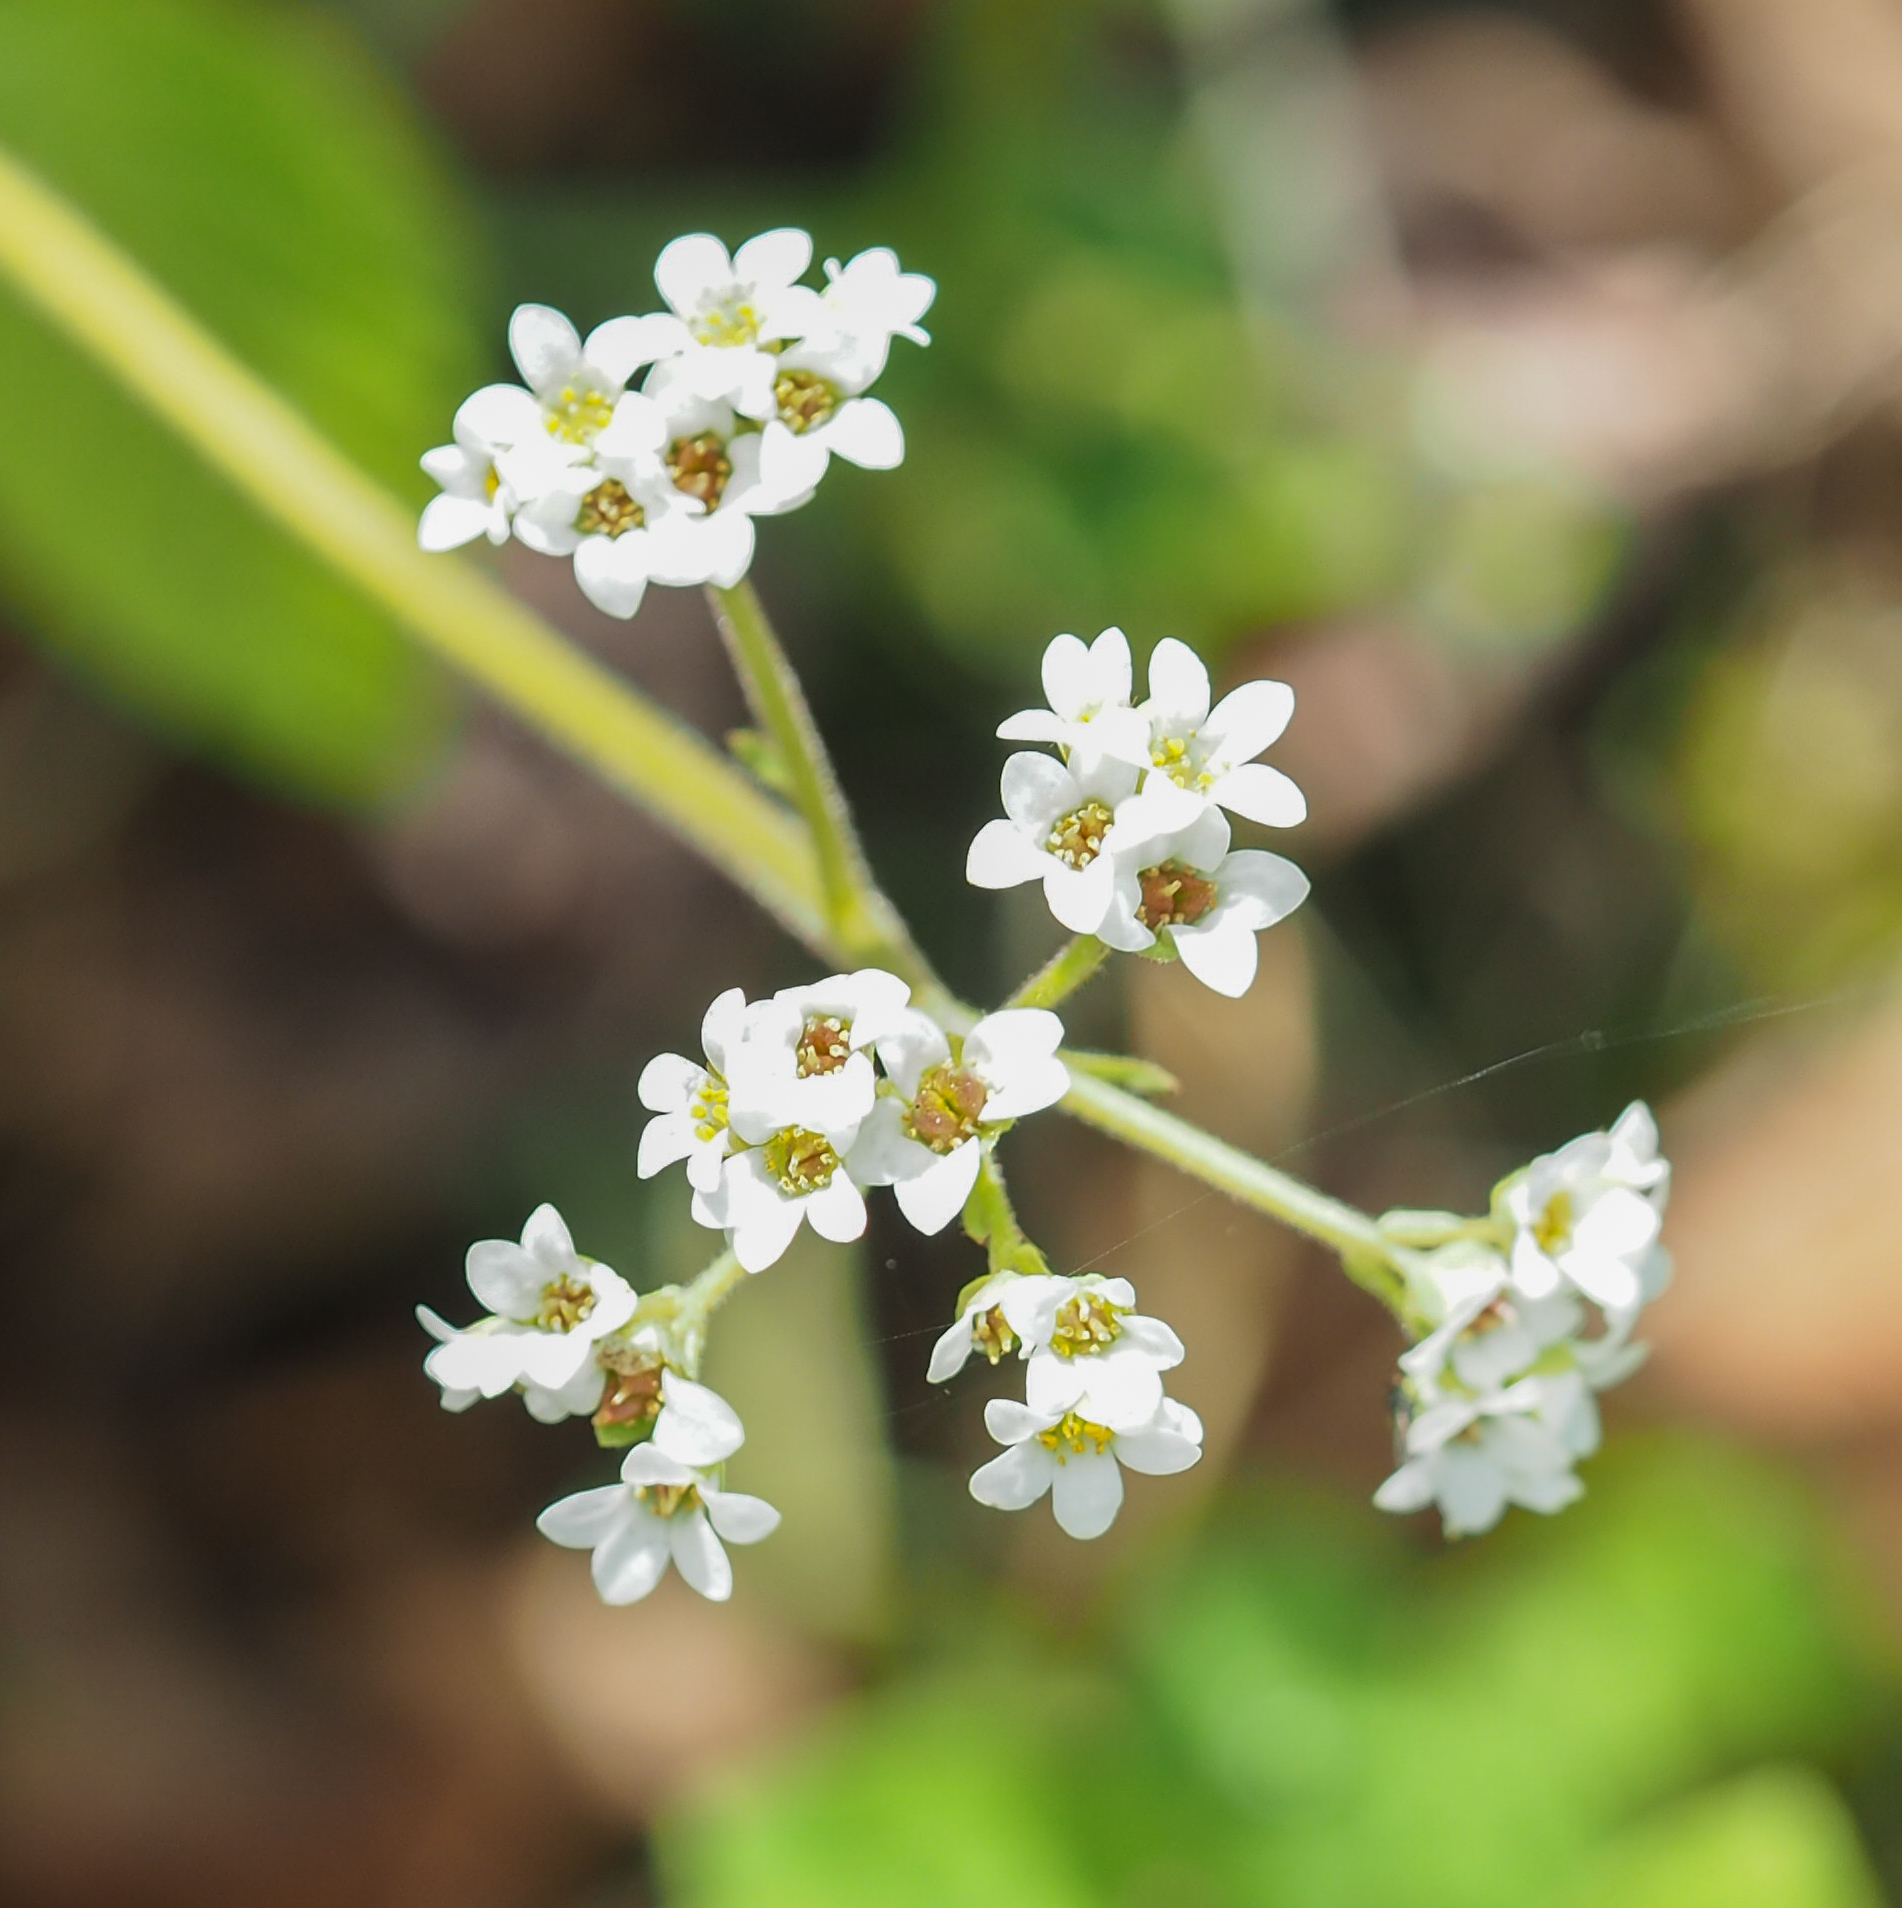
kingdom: Plantae
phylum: Tracheophyta
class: Magnoliopsida
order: Saxifragales
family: Saxifragaceae
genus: Micranthes
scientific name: Micranthes virginiensis
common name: Early saxifrage
